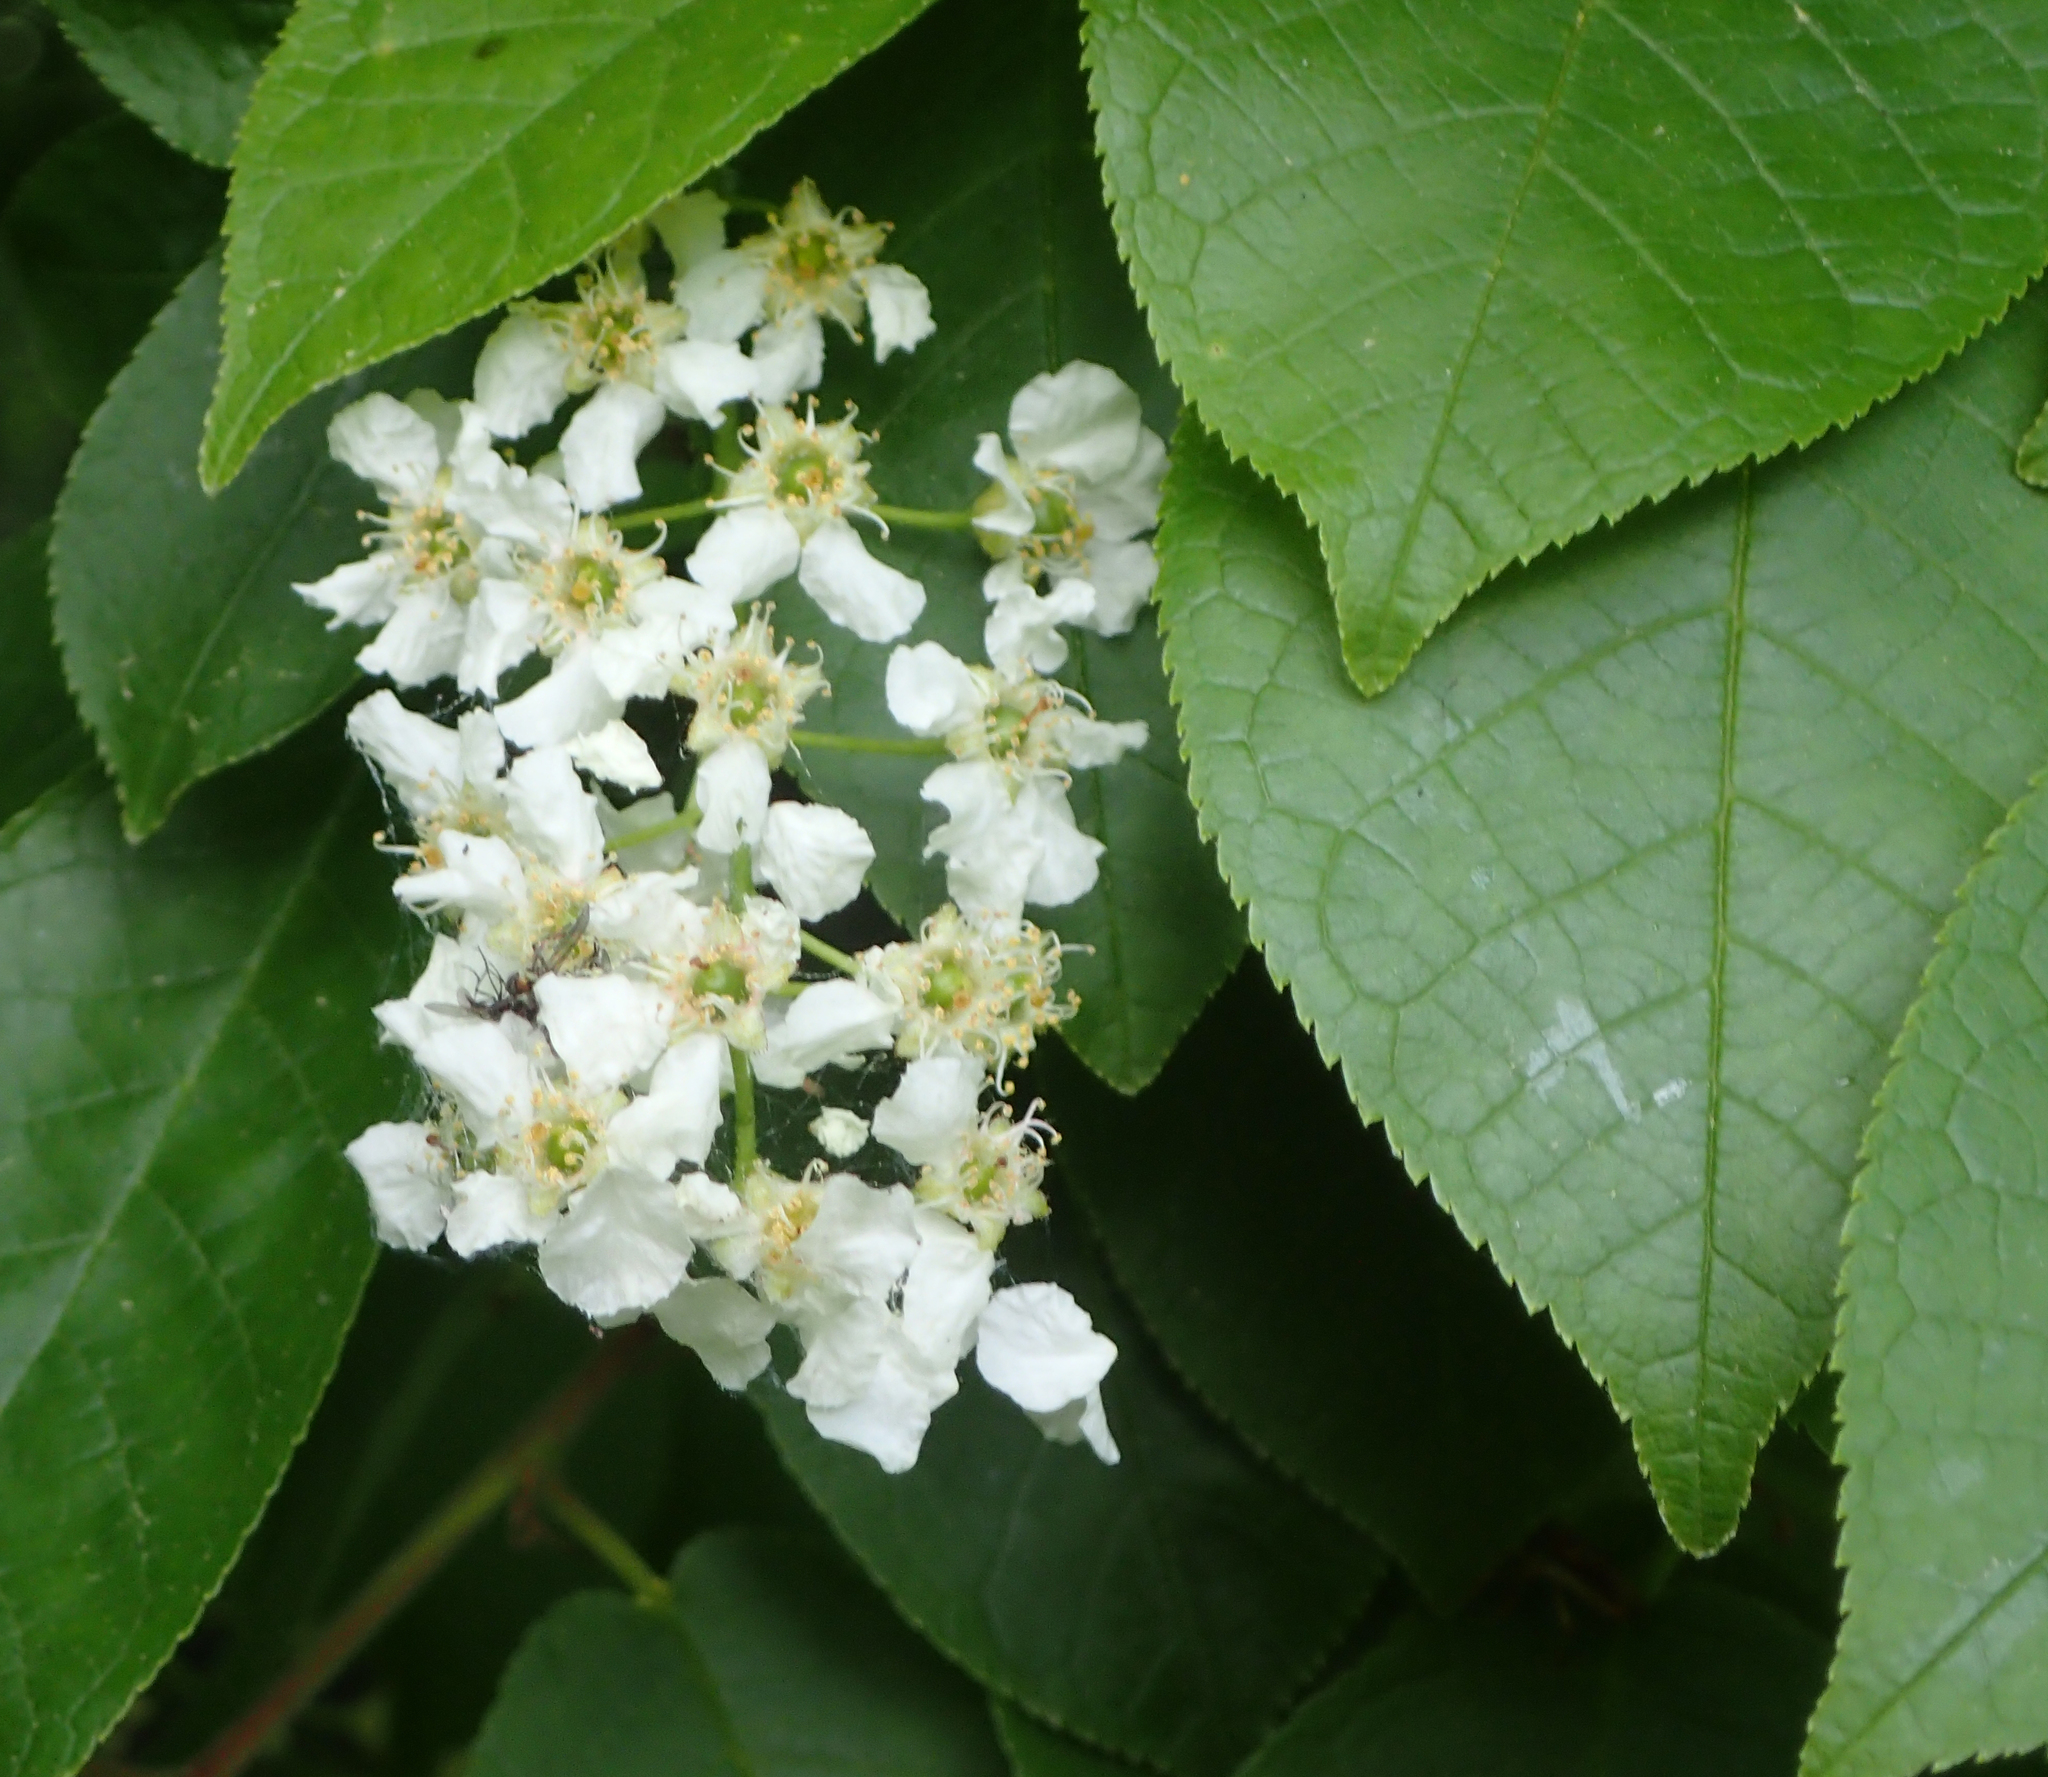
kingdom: Plantae
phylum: Tracheophyta
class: Magnoliopsida
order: Rosales
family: Rosaceae
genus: Prunus
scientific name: Prunus padus
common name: Bird cherry
